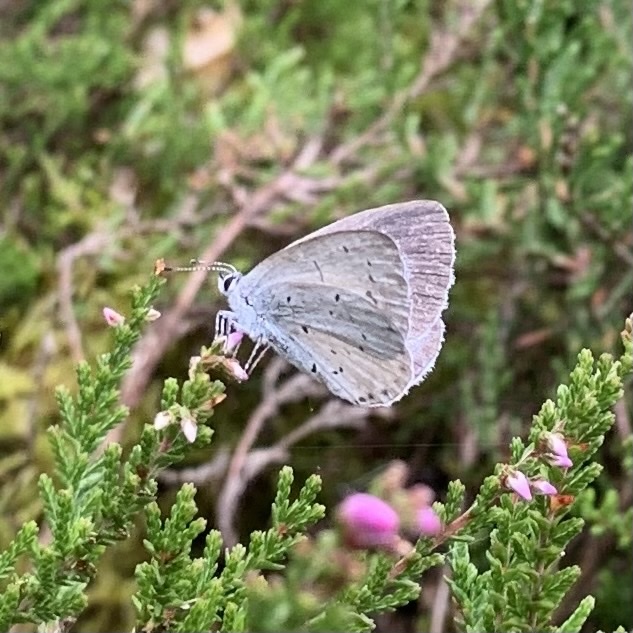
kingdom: Animalia
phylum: Arthropoda
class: Insecta
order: Lepidoptera
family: Lycaenidae
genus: Celastrina
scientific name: Celastrina argiolus
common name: Holly blue
